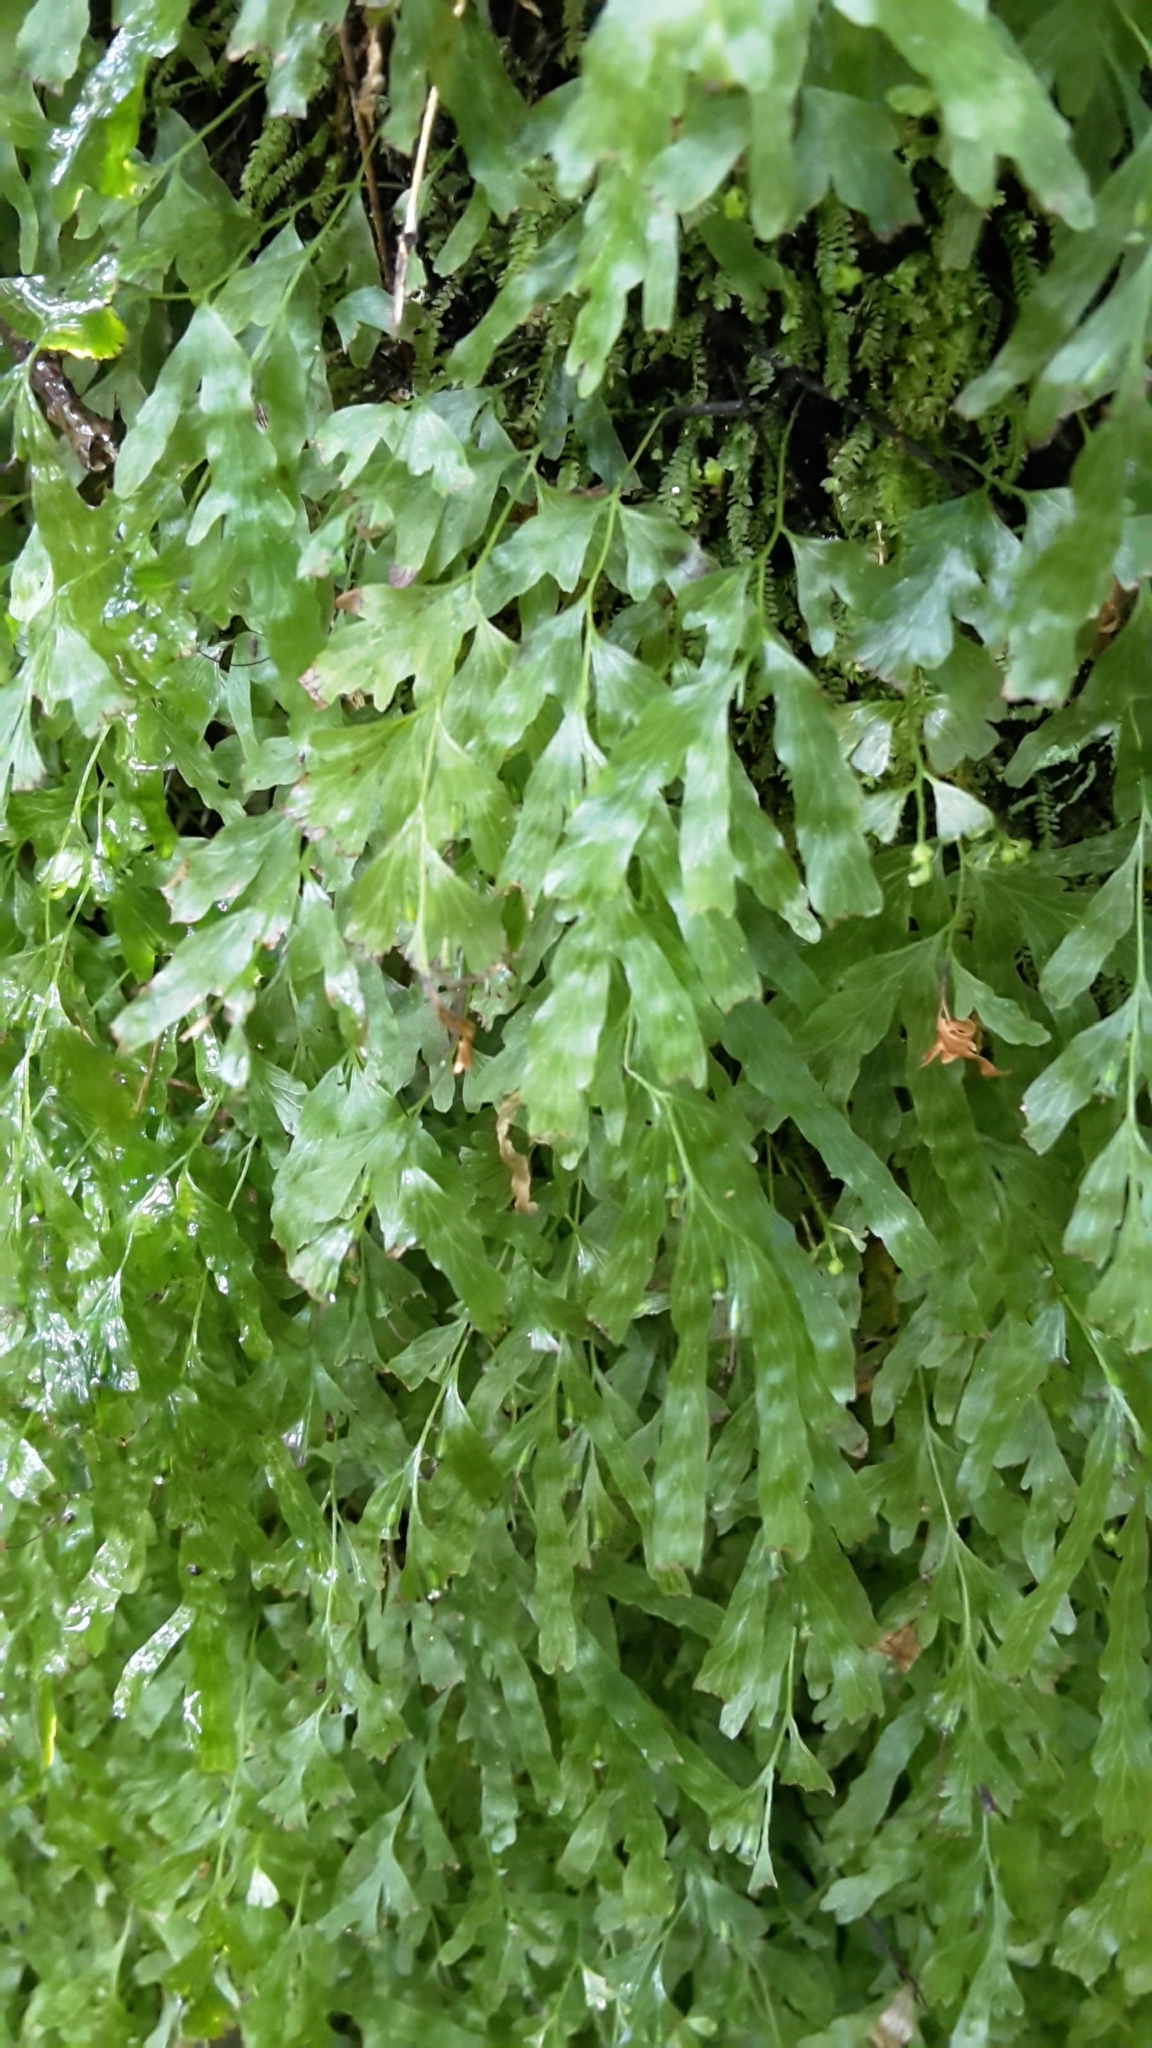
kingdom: Plantae
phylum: Tracheophyta
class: Polypodiopsida
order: Hymenophyllales
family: Hymenophyllaceae
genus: Polyphlebium
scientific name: Polyphlebium venosum
